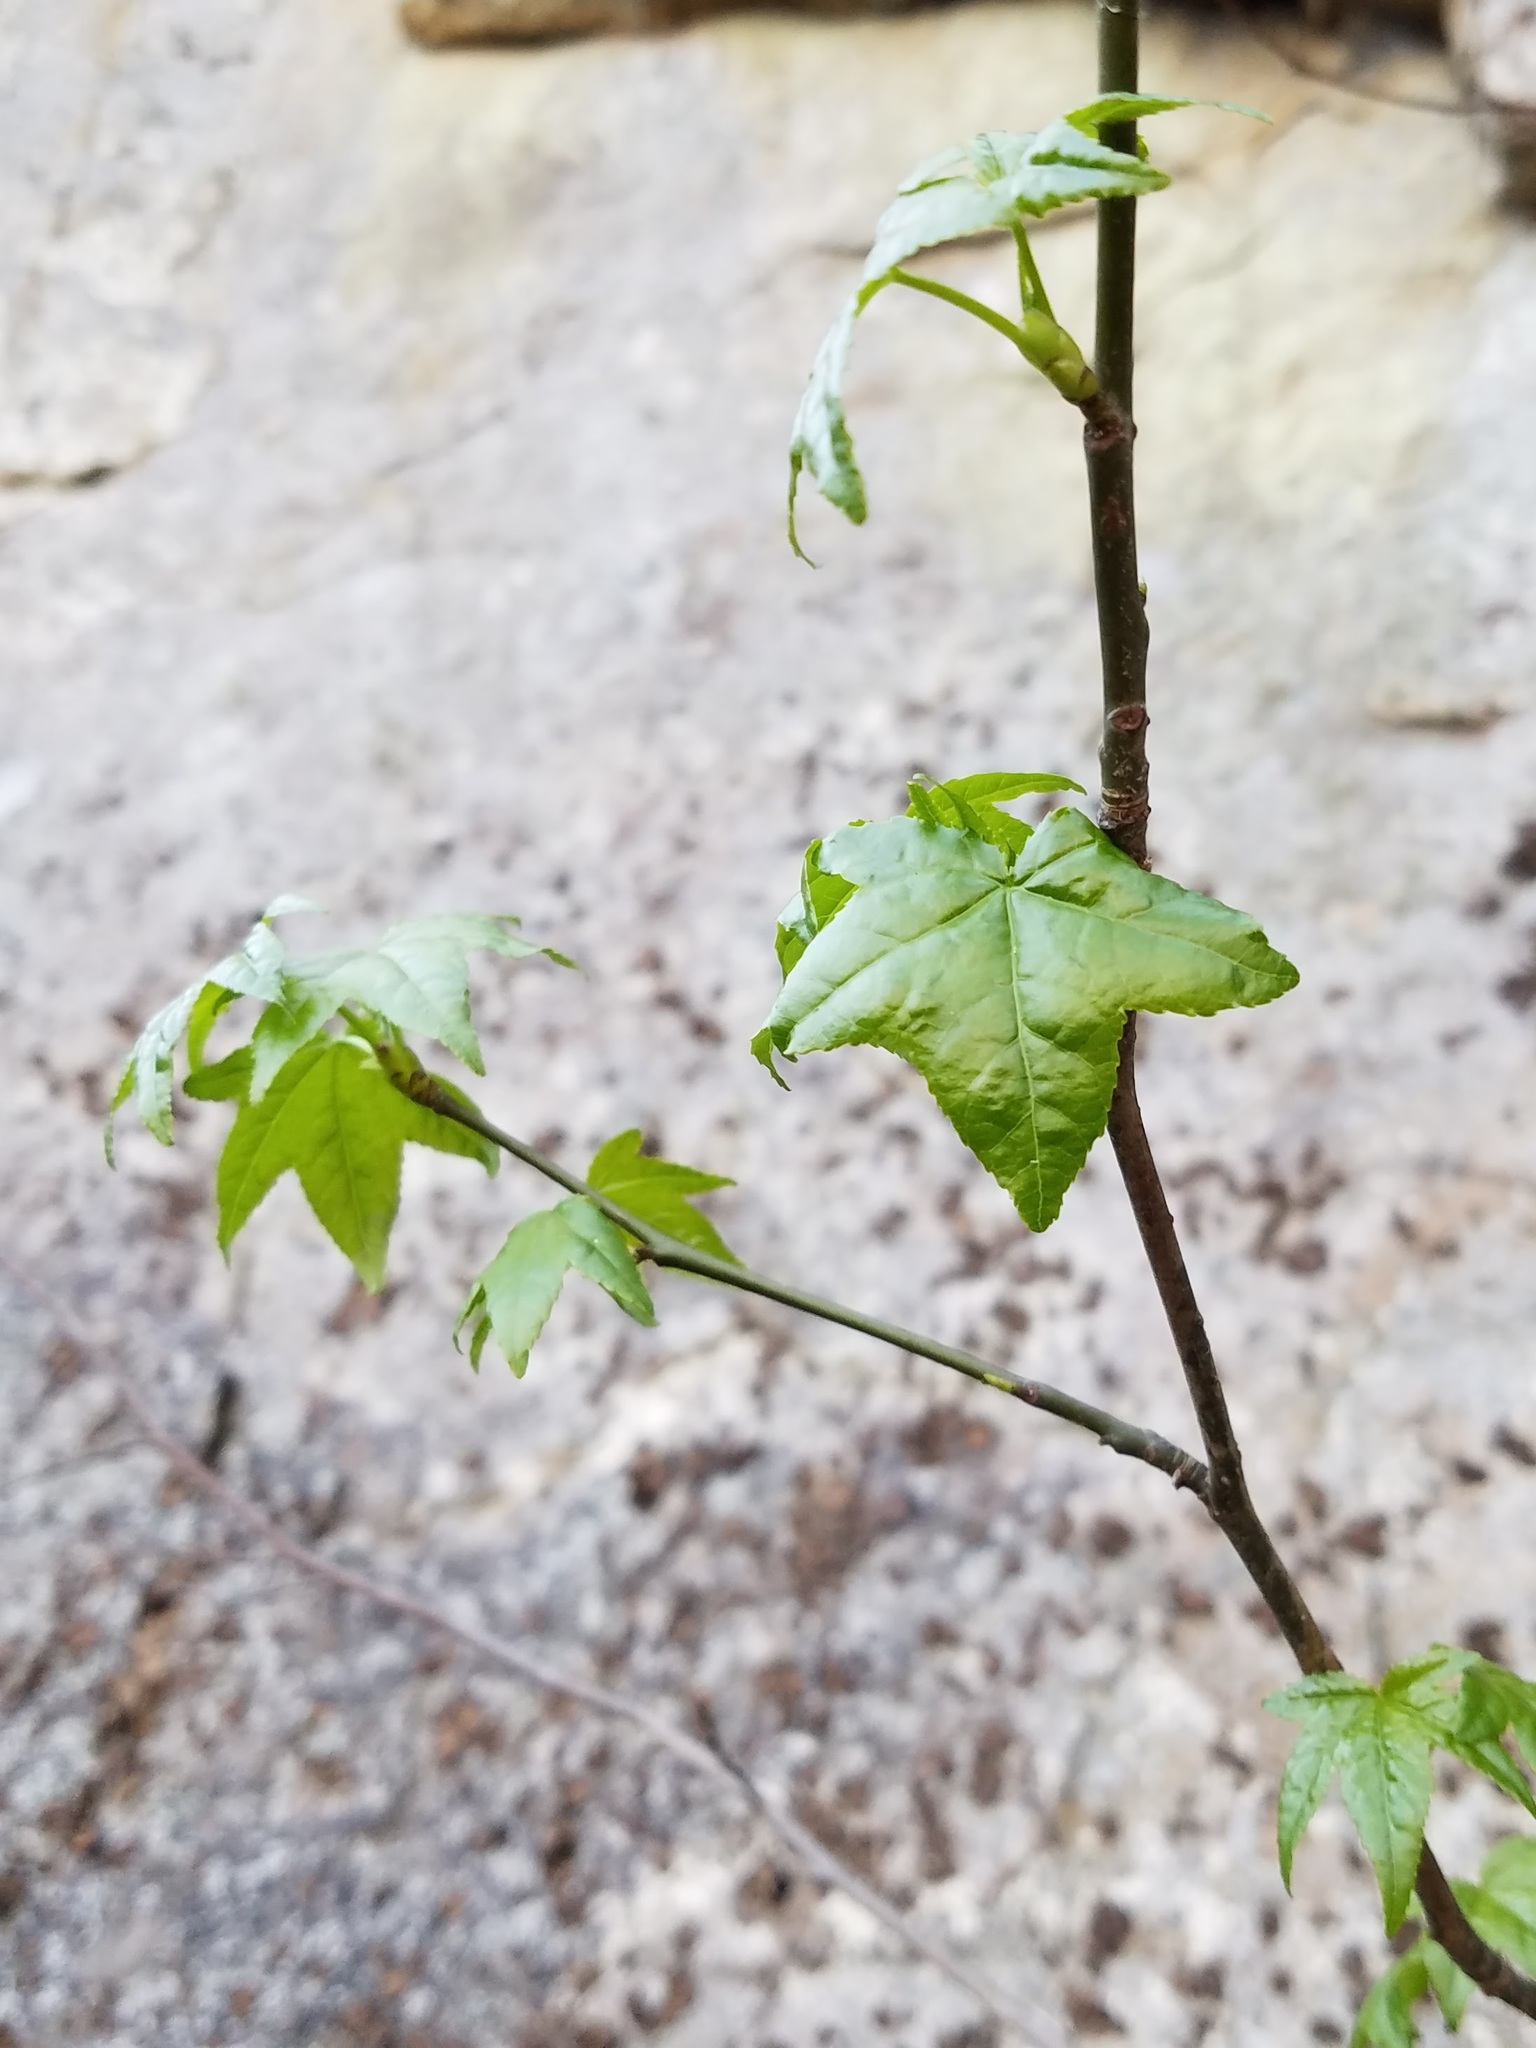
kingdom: Plantae
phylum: Tracheophyta
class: Magnoliopsida
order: Saxifragales
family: Altingiaceae
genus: Liquidambar
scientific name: Liquidambar styraciflua
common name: Sweet gum
